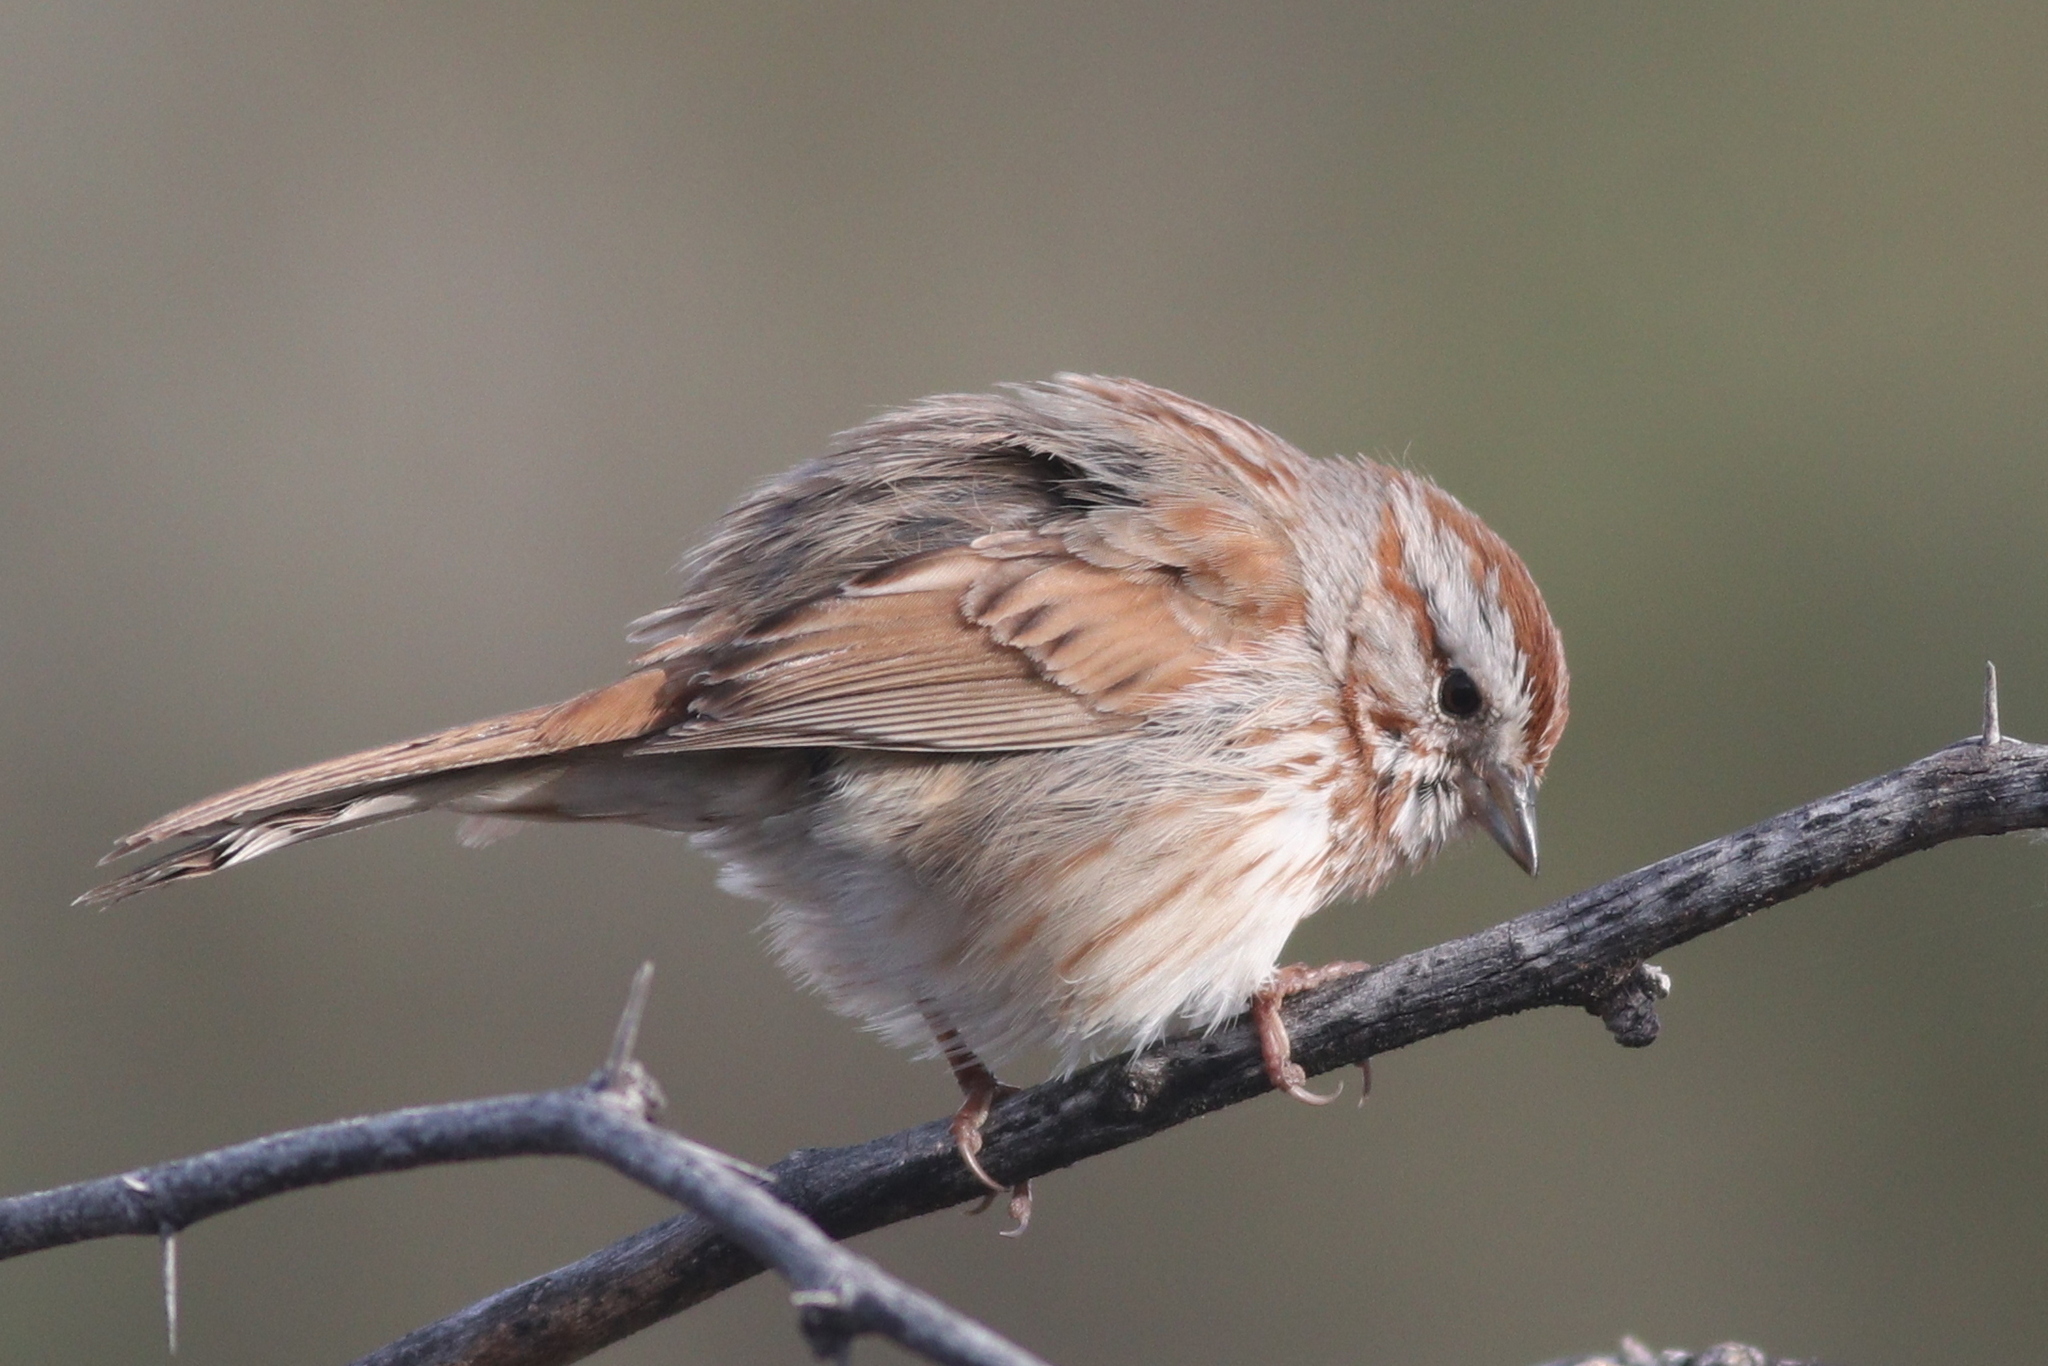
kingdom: Animalia
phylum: Chordata
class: Aves
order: Passeriformes
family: Passerellidae
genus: Melospiza
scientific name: Melospiza melodia
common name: Song sparrow
